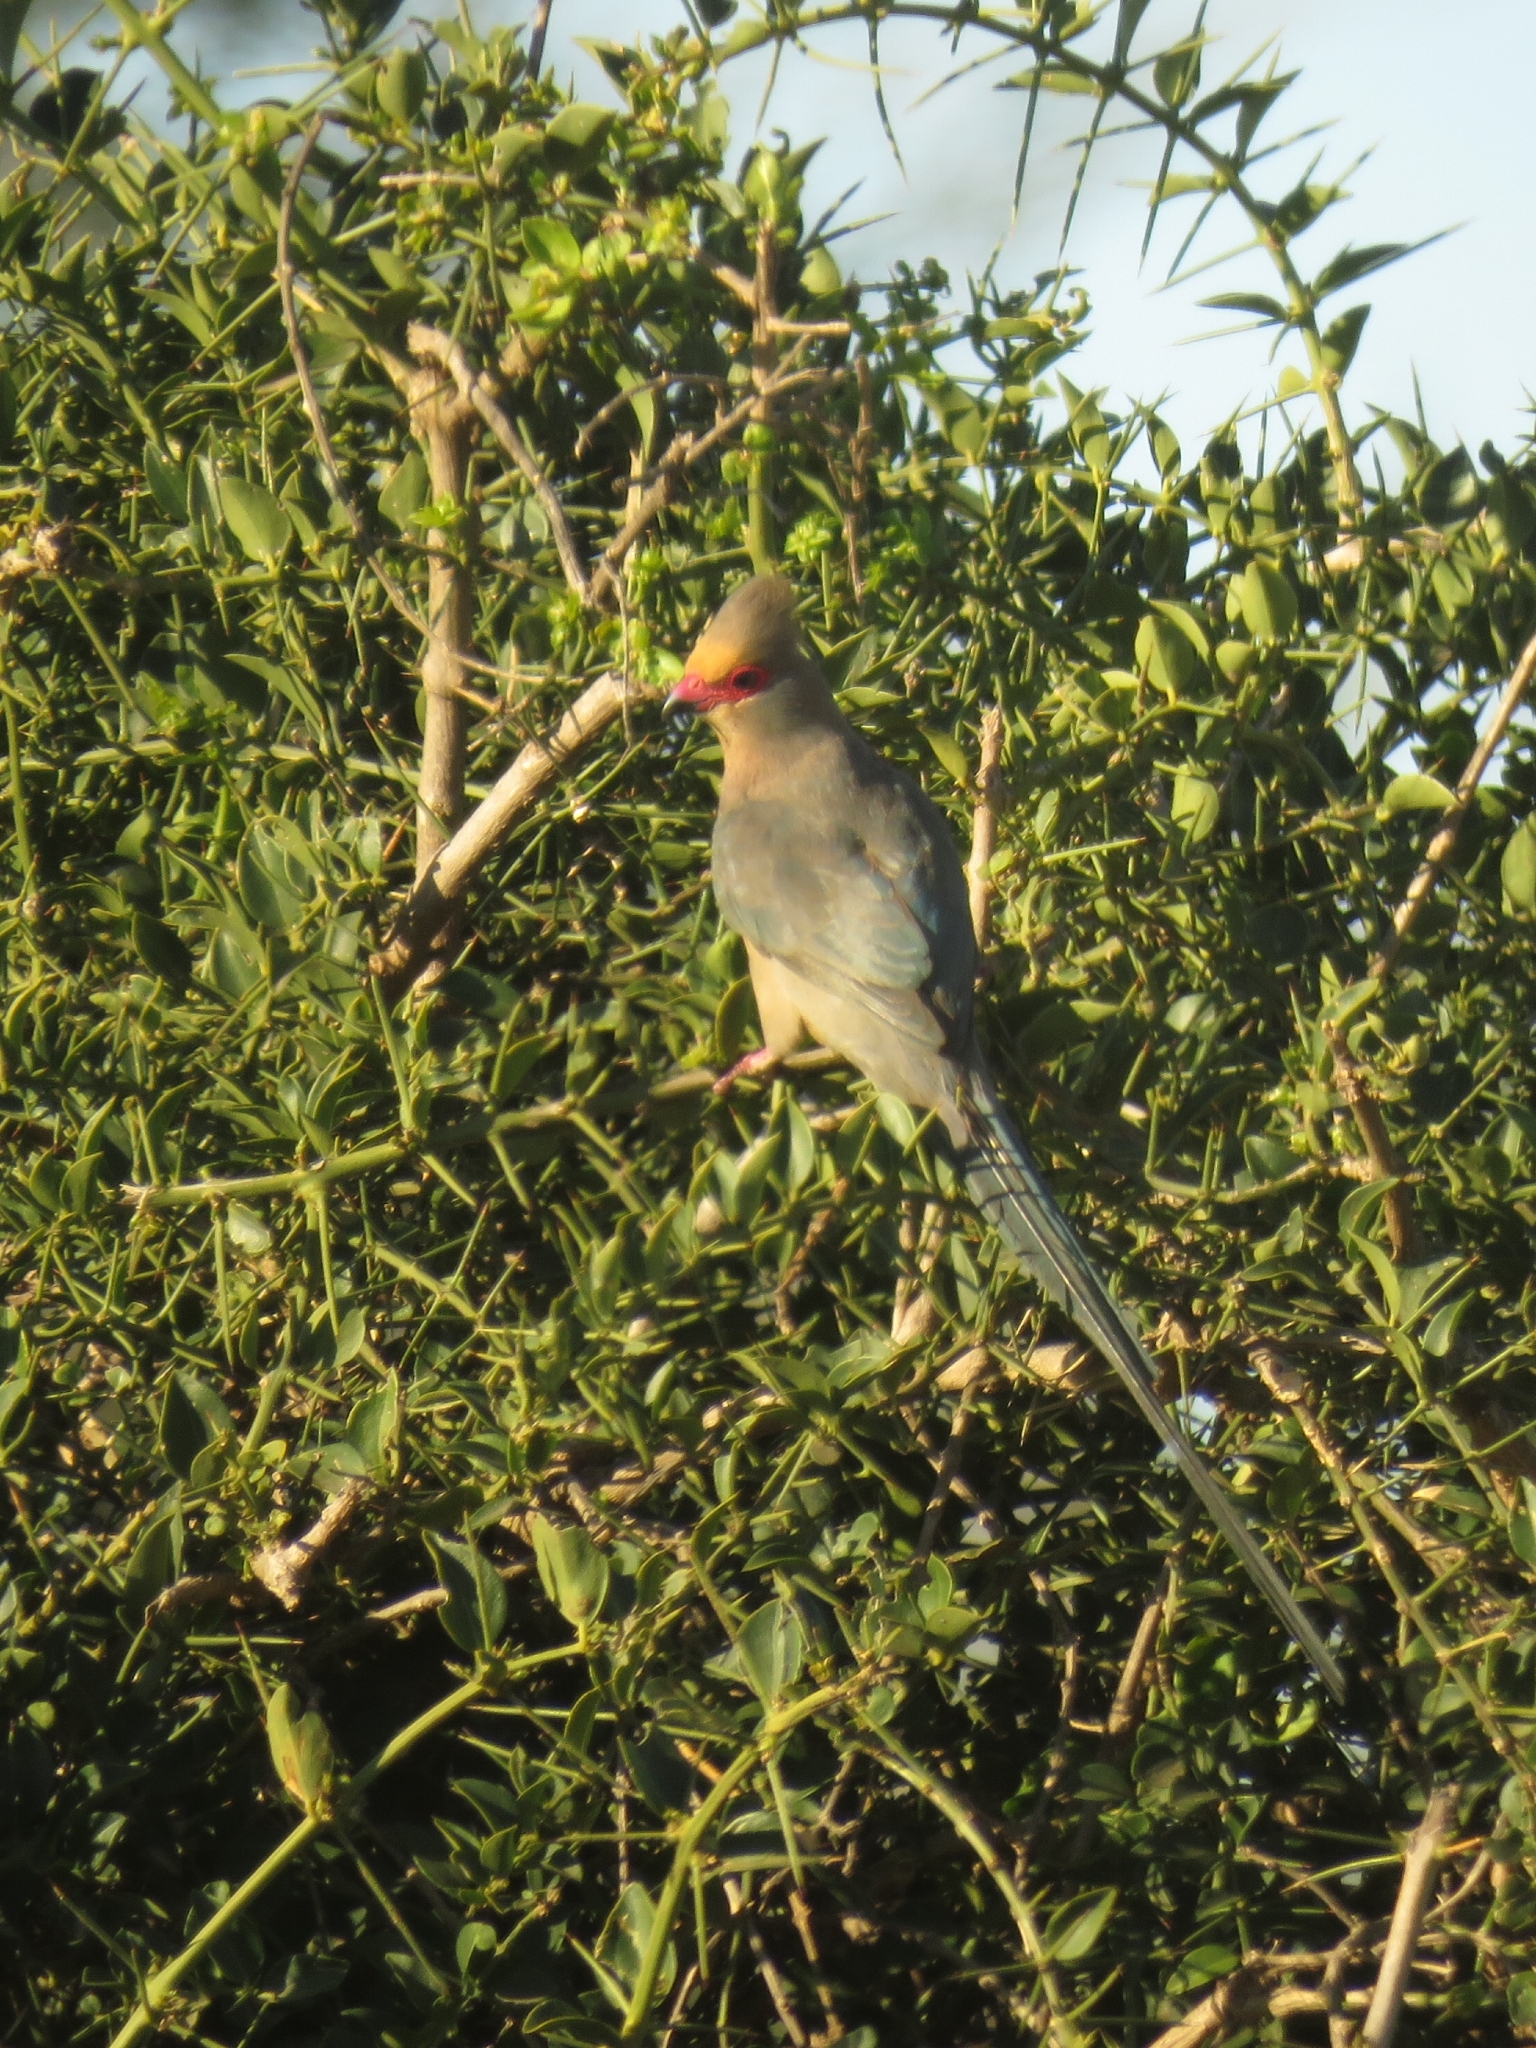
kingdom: Animalia
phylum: Chordata
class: Aves
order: Coliiformes
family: Coliidae
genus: Urocolius
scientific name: Urocolius indicus
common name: Red-faced mousebird
